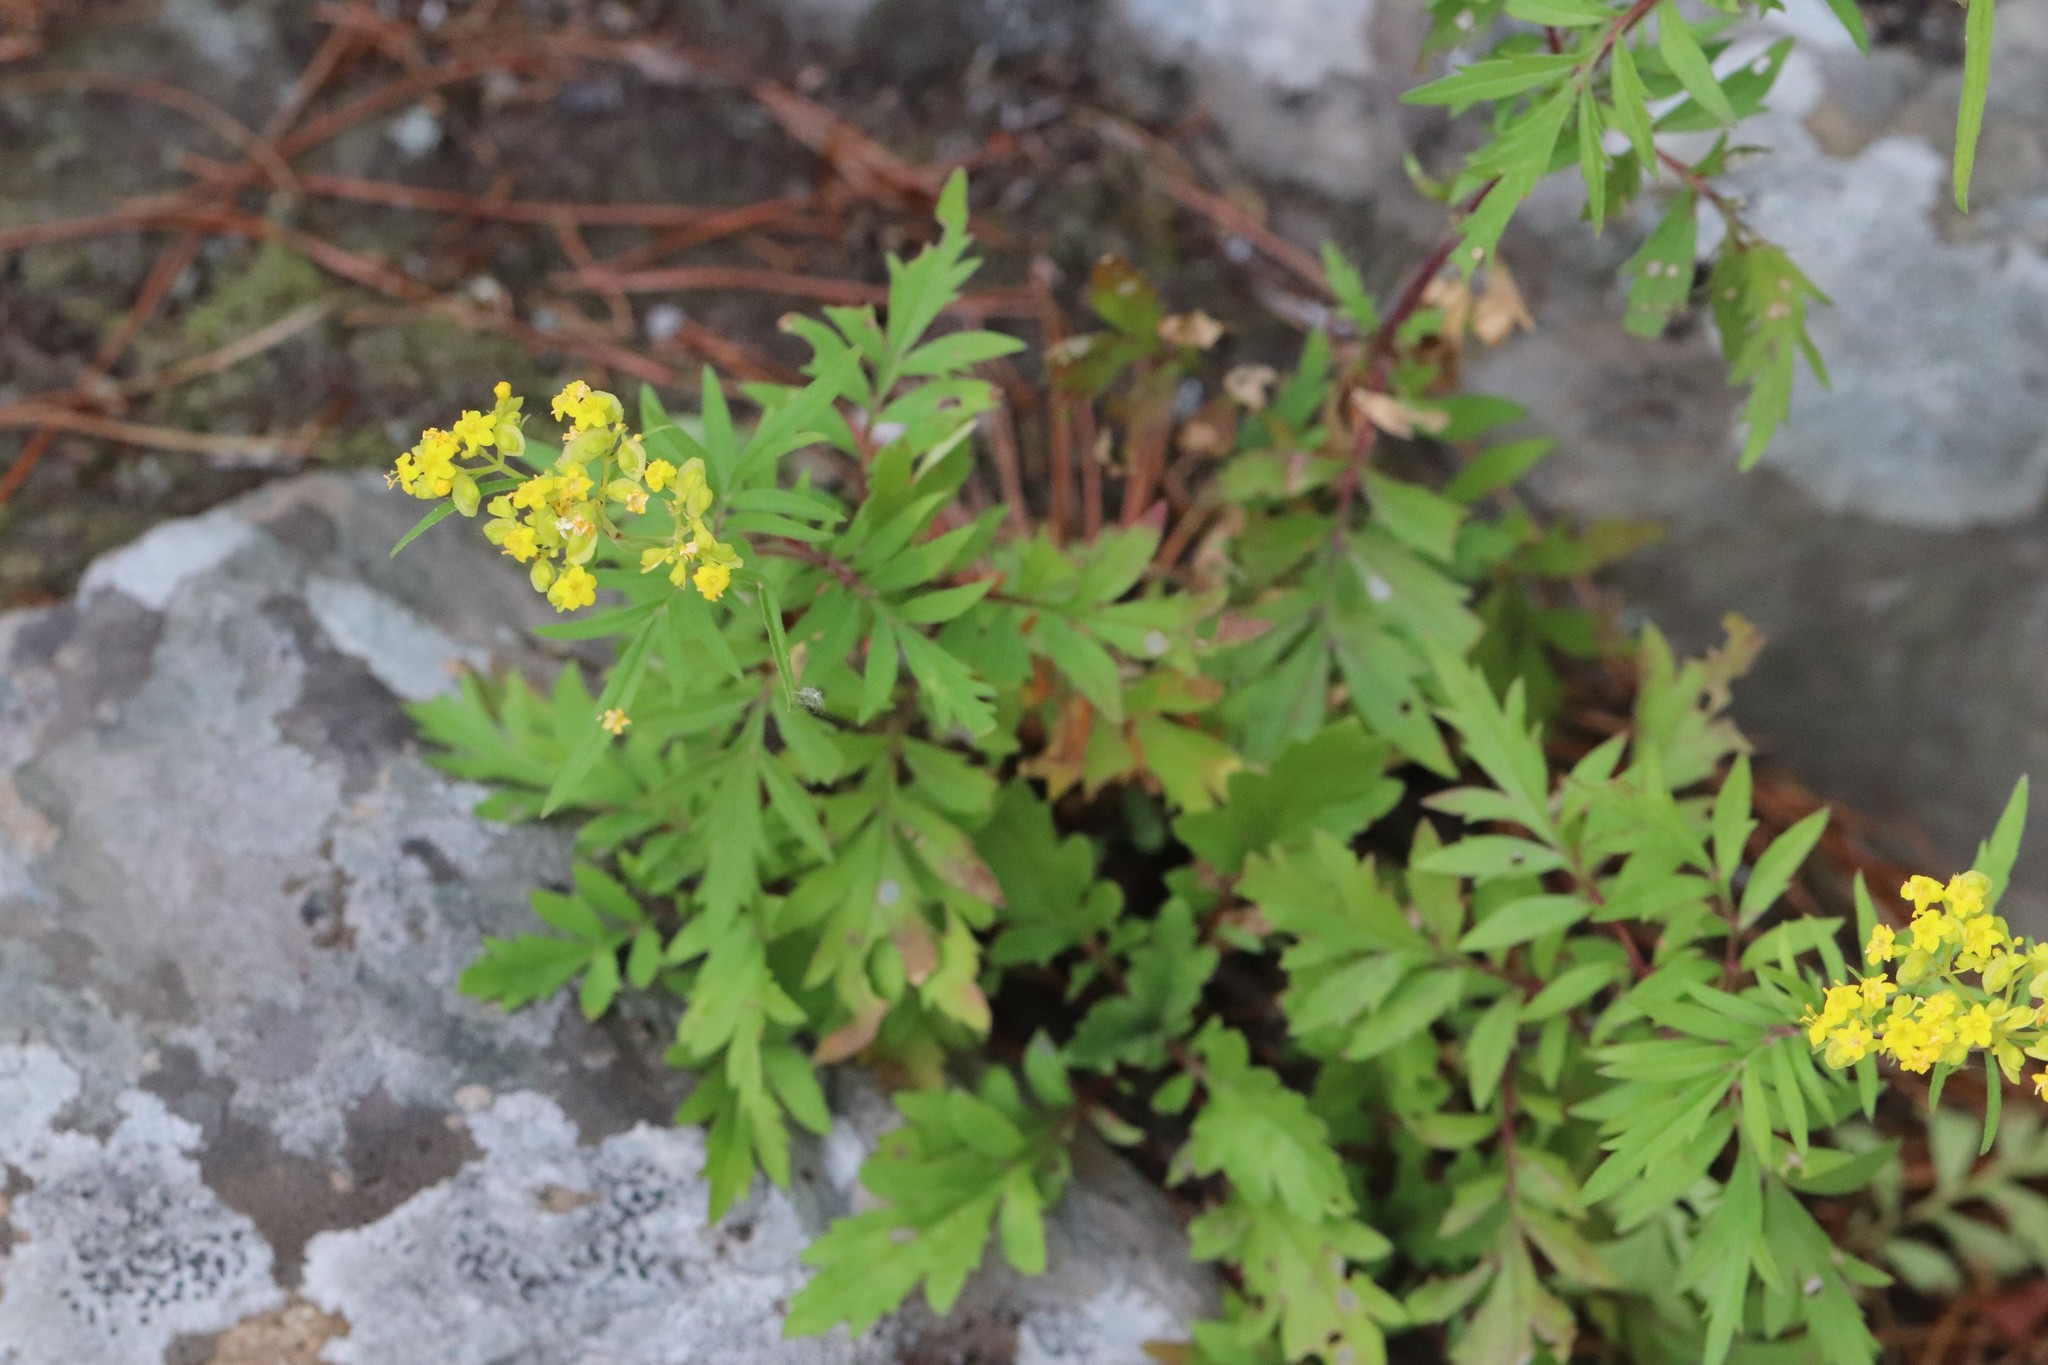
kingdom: Plantae
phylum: Tracheophyta
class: Magnoliopsida
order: Dipsacales
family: Caprifoliaceae
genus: Patrinia
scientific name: Patrinia rupestris
